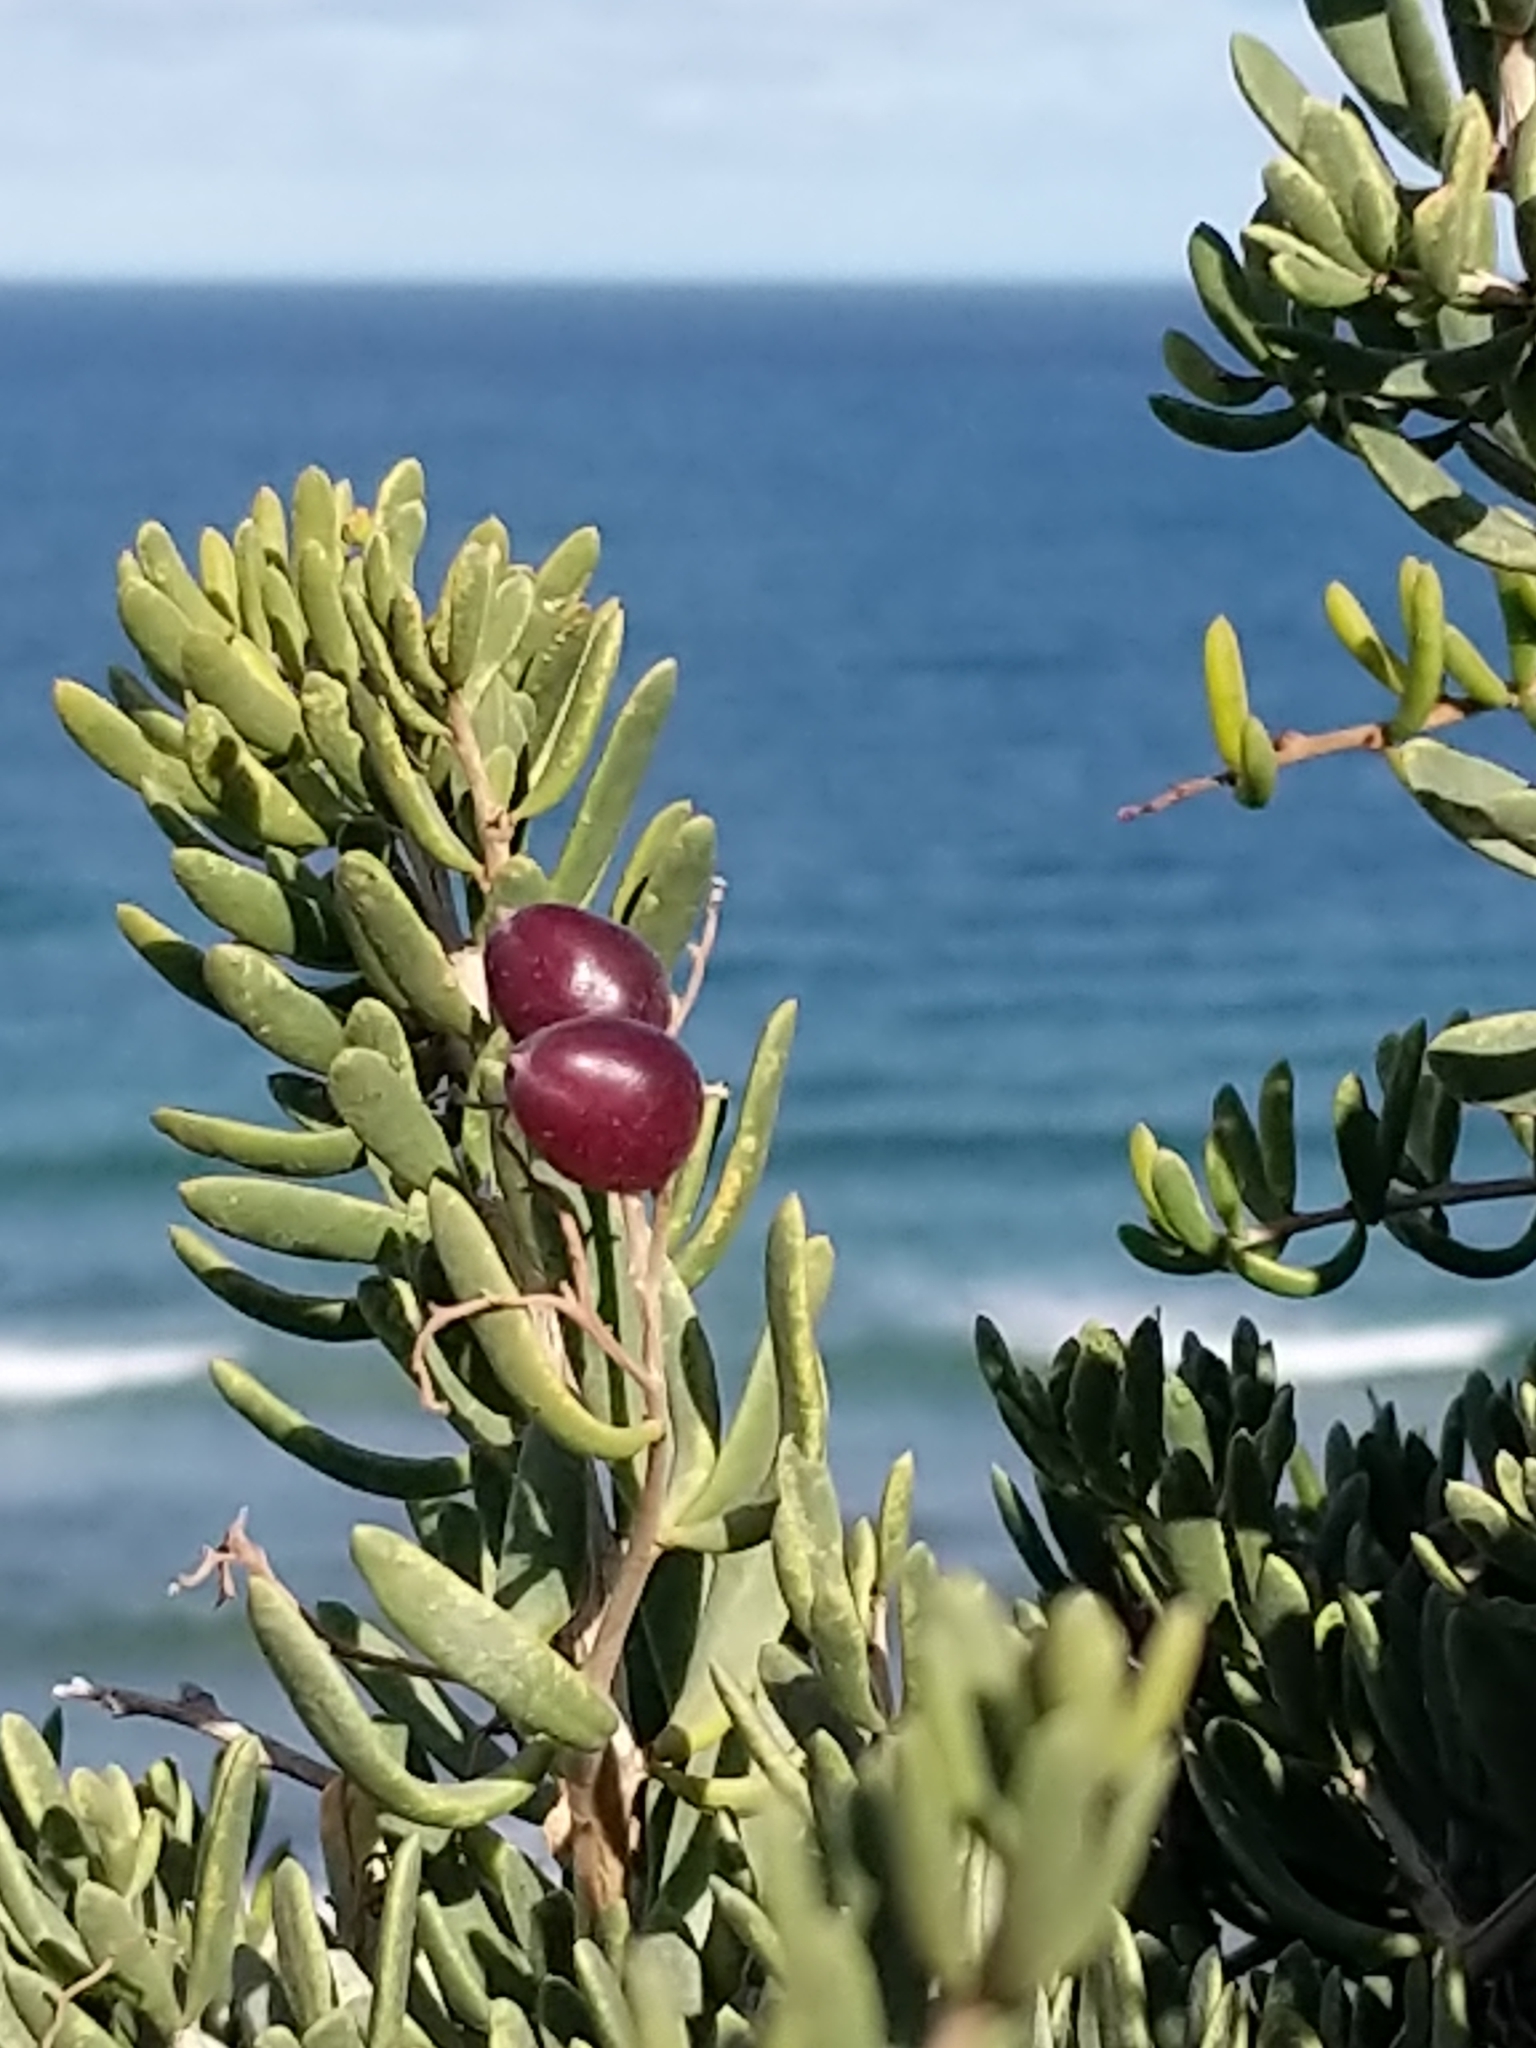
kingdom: Plantae
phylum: Tracheophyta
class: Magnoliopsida
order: Sapindales
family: Nitrariaceae
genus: Nitraria
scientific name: Nitraria billardierei
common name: Dillonbush
